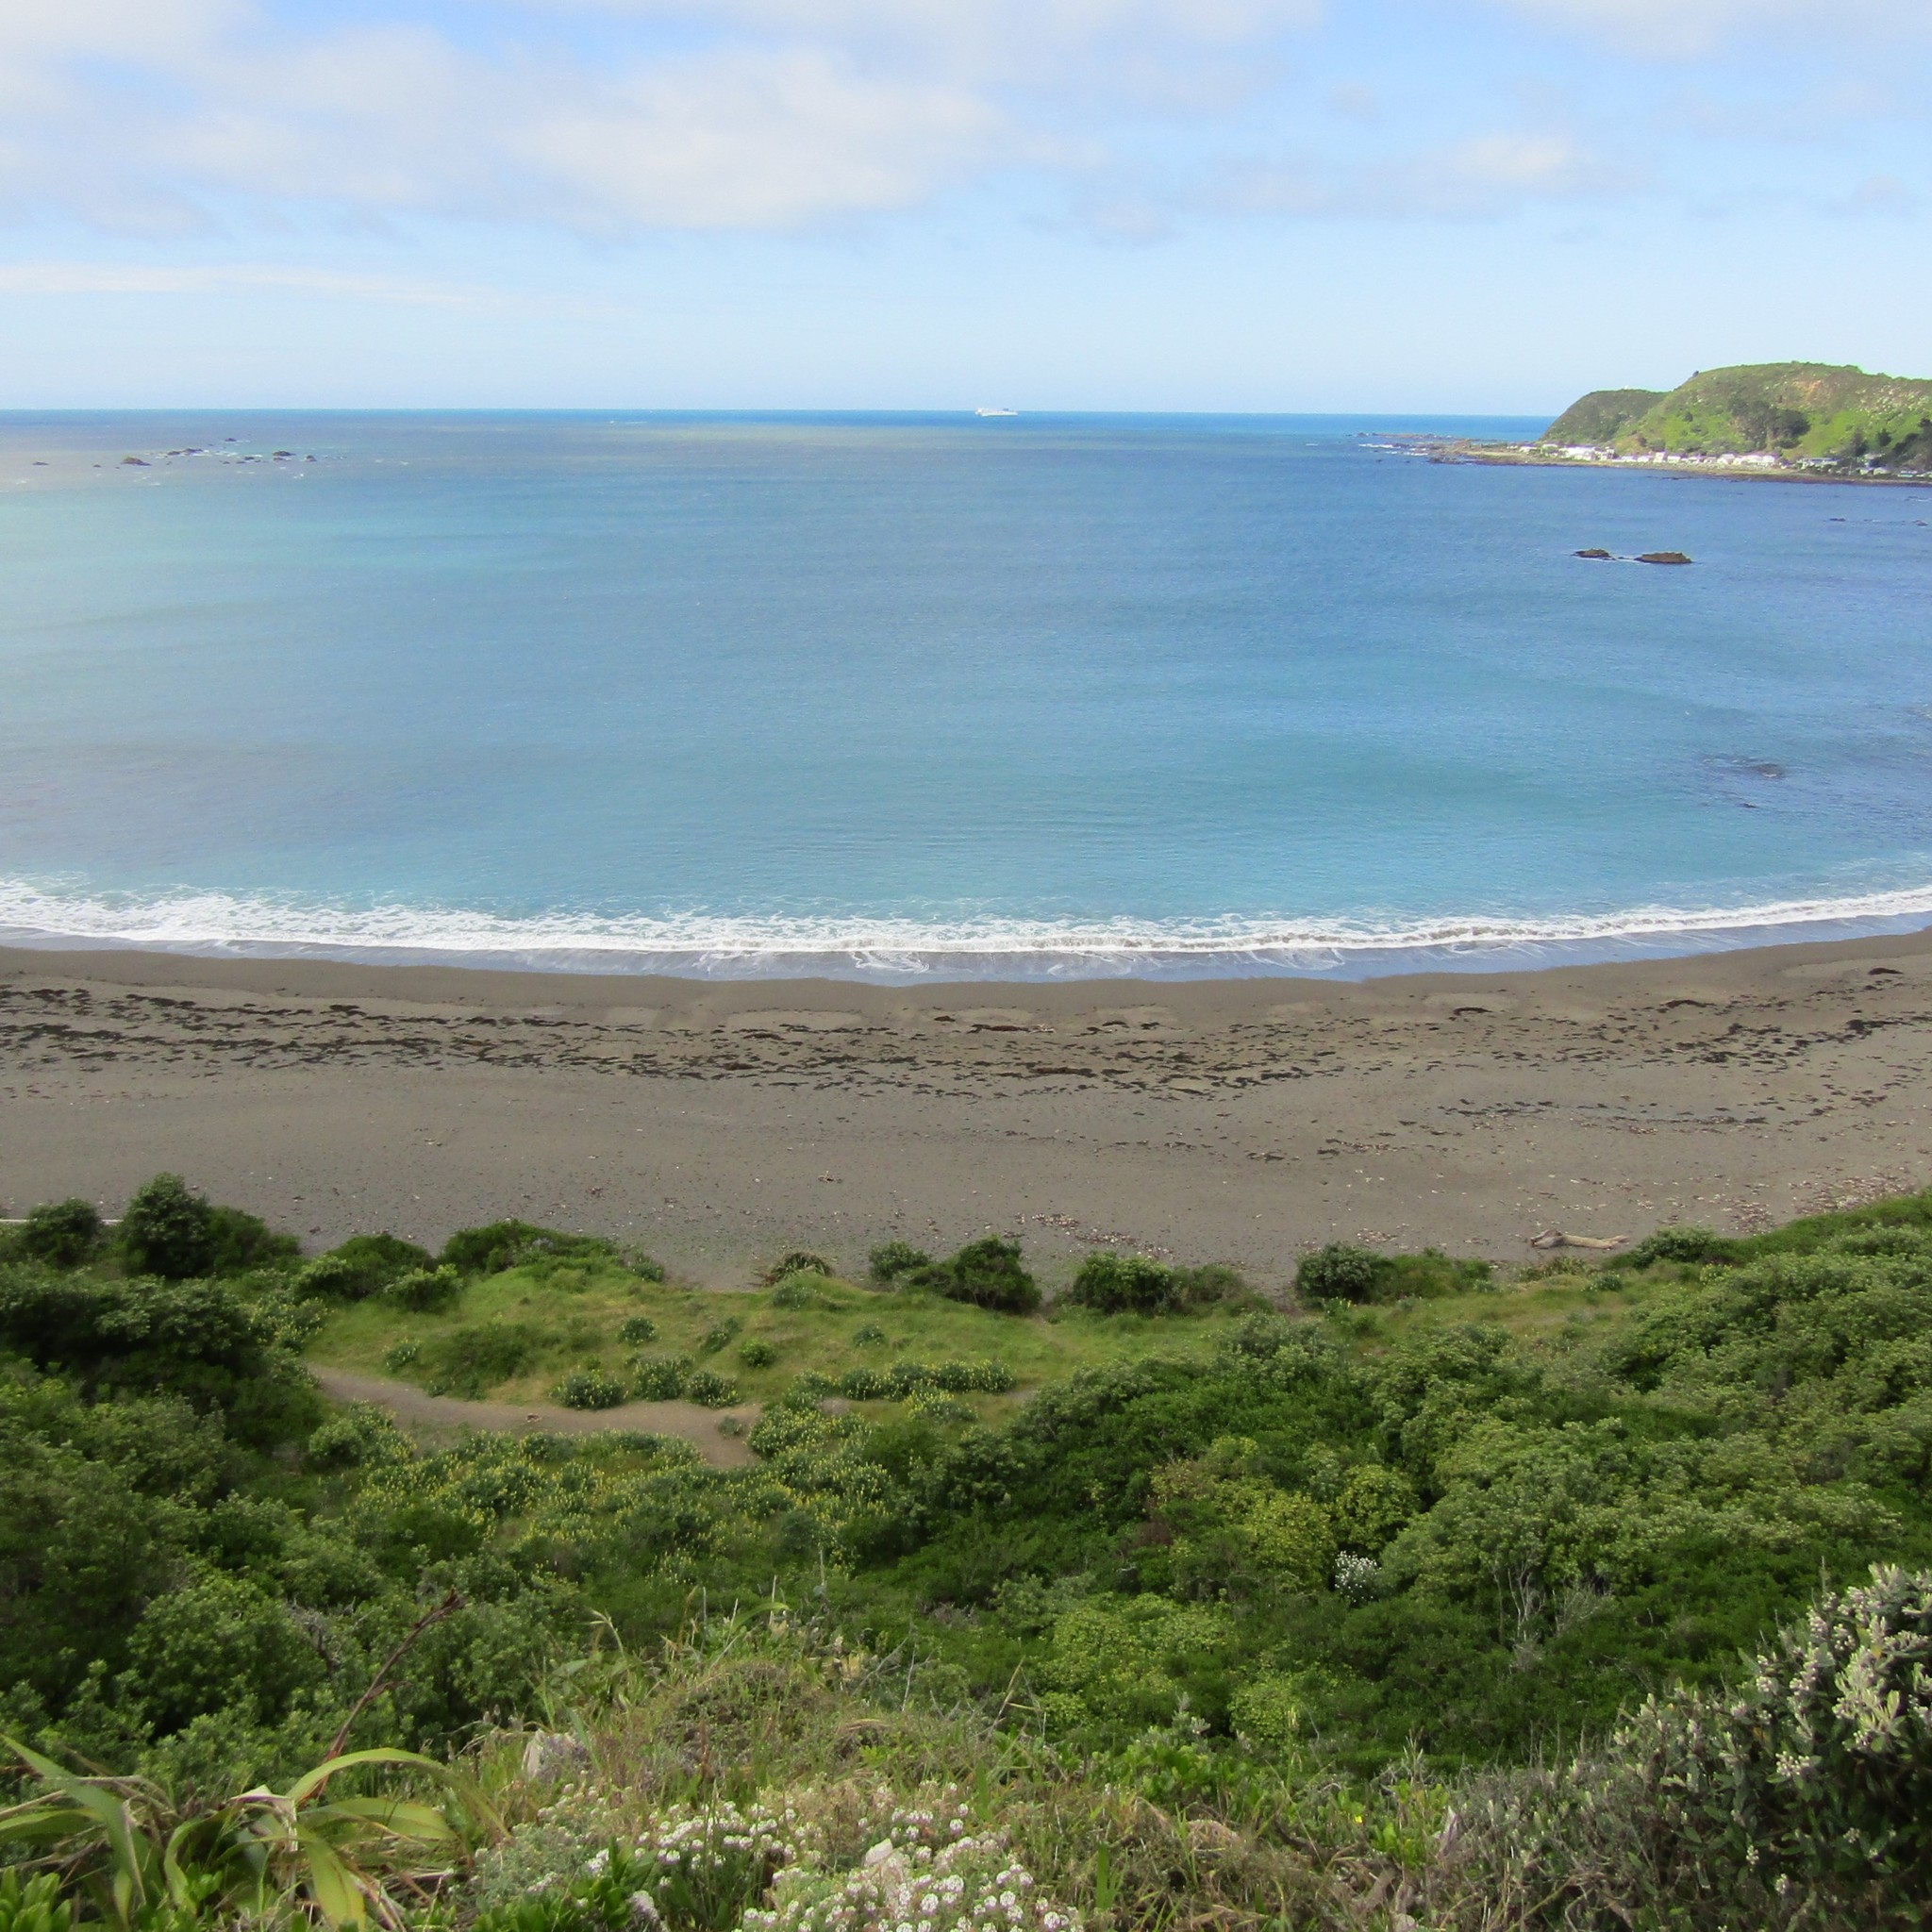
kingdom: Plantae
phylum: Tracheophyta
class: Magnoliopsida
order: Brassicales
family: Brassicaceae
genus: Lobularia
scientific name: Lobularia maritima
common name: Sweet alison
